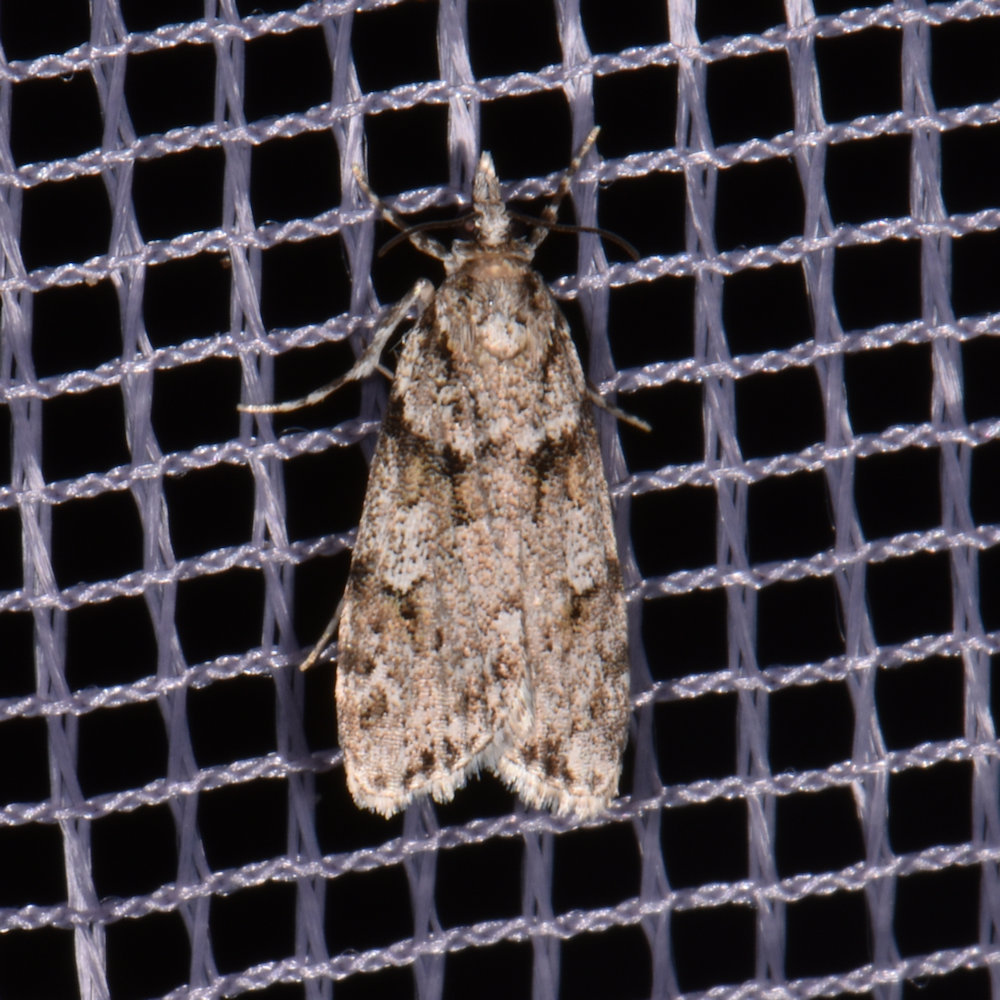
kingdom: Animalia
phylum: Arthropoda
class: Insecta
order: Lepidoptera
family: Crambidae
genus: Scoparia
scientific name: Scoparia biplagialis
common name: Double-striped scoparia moth
